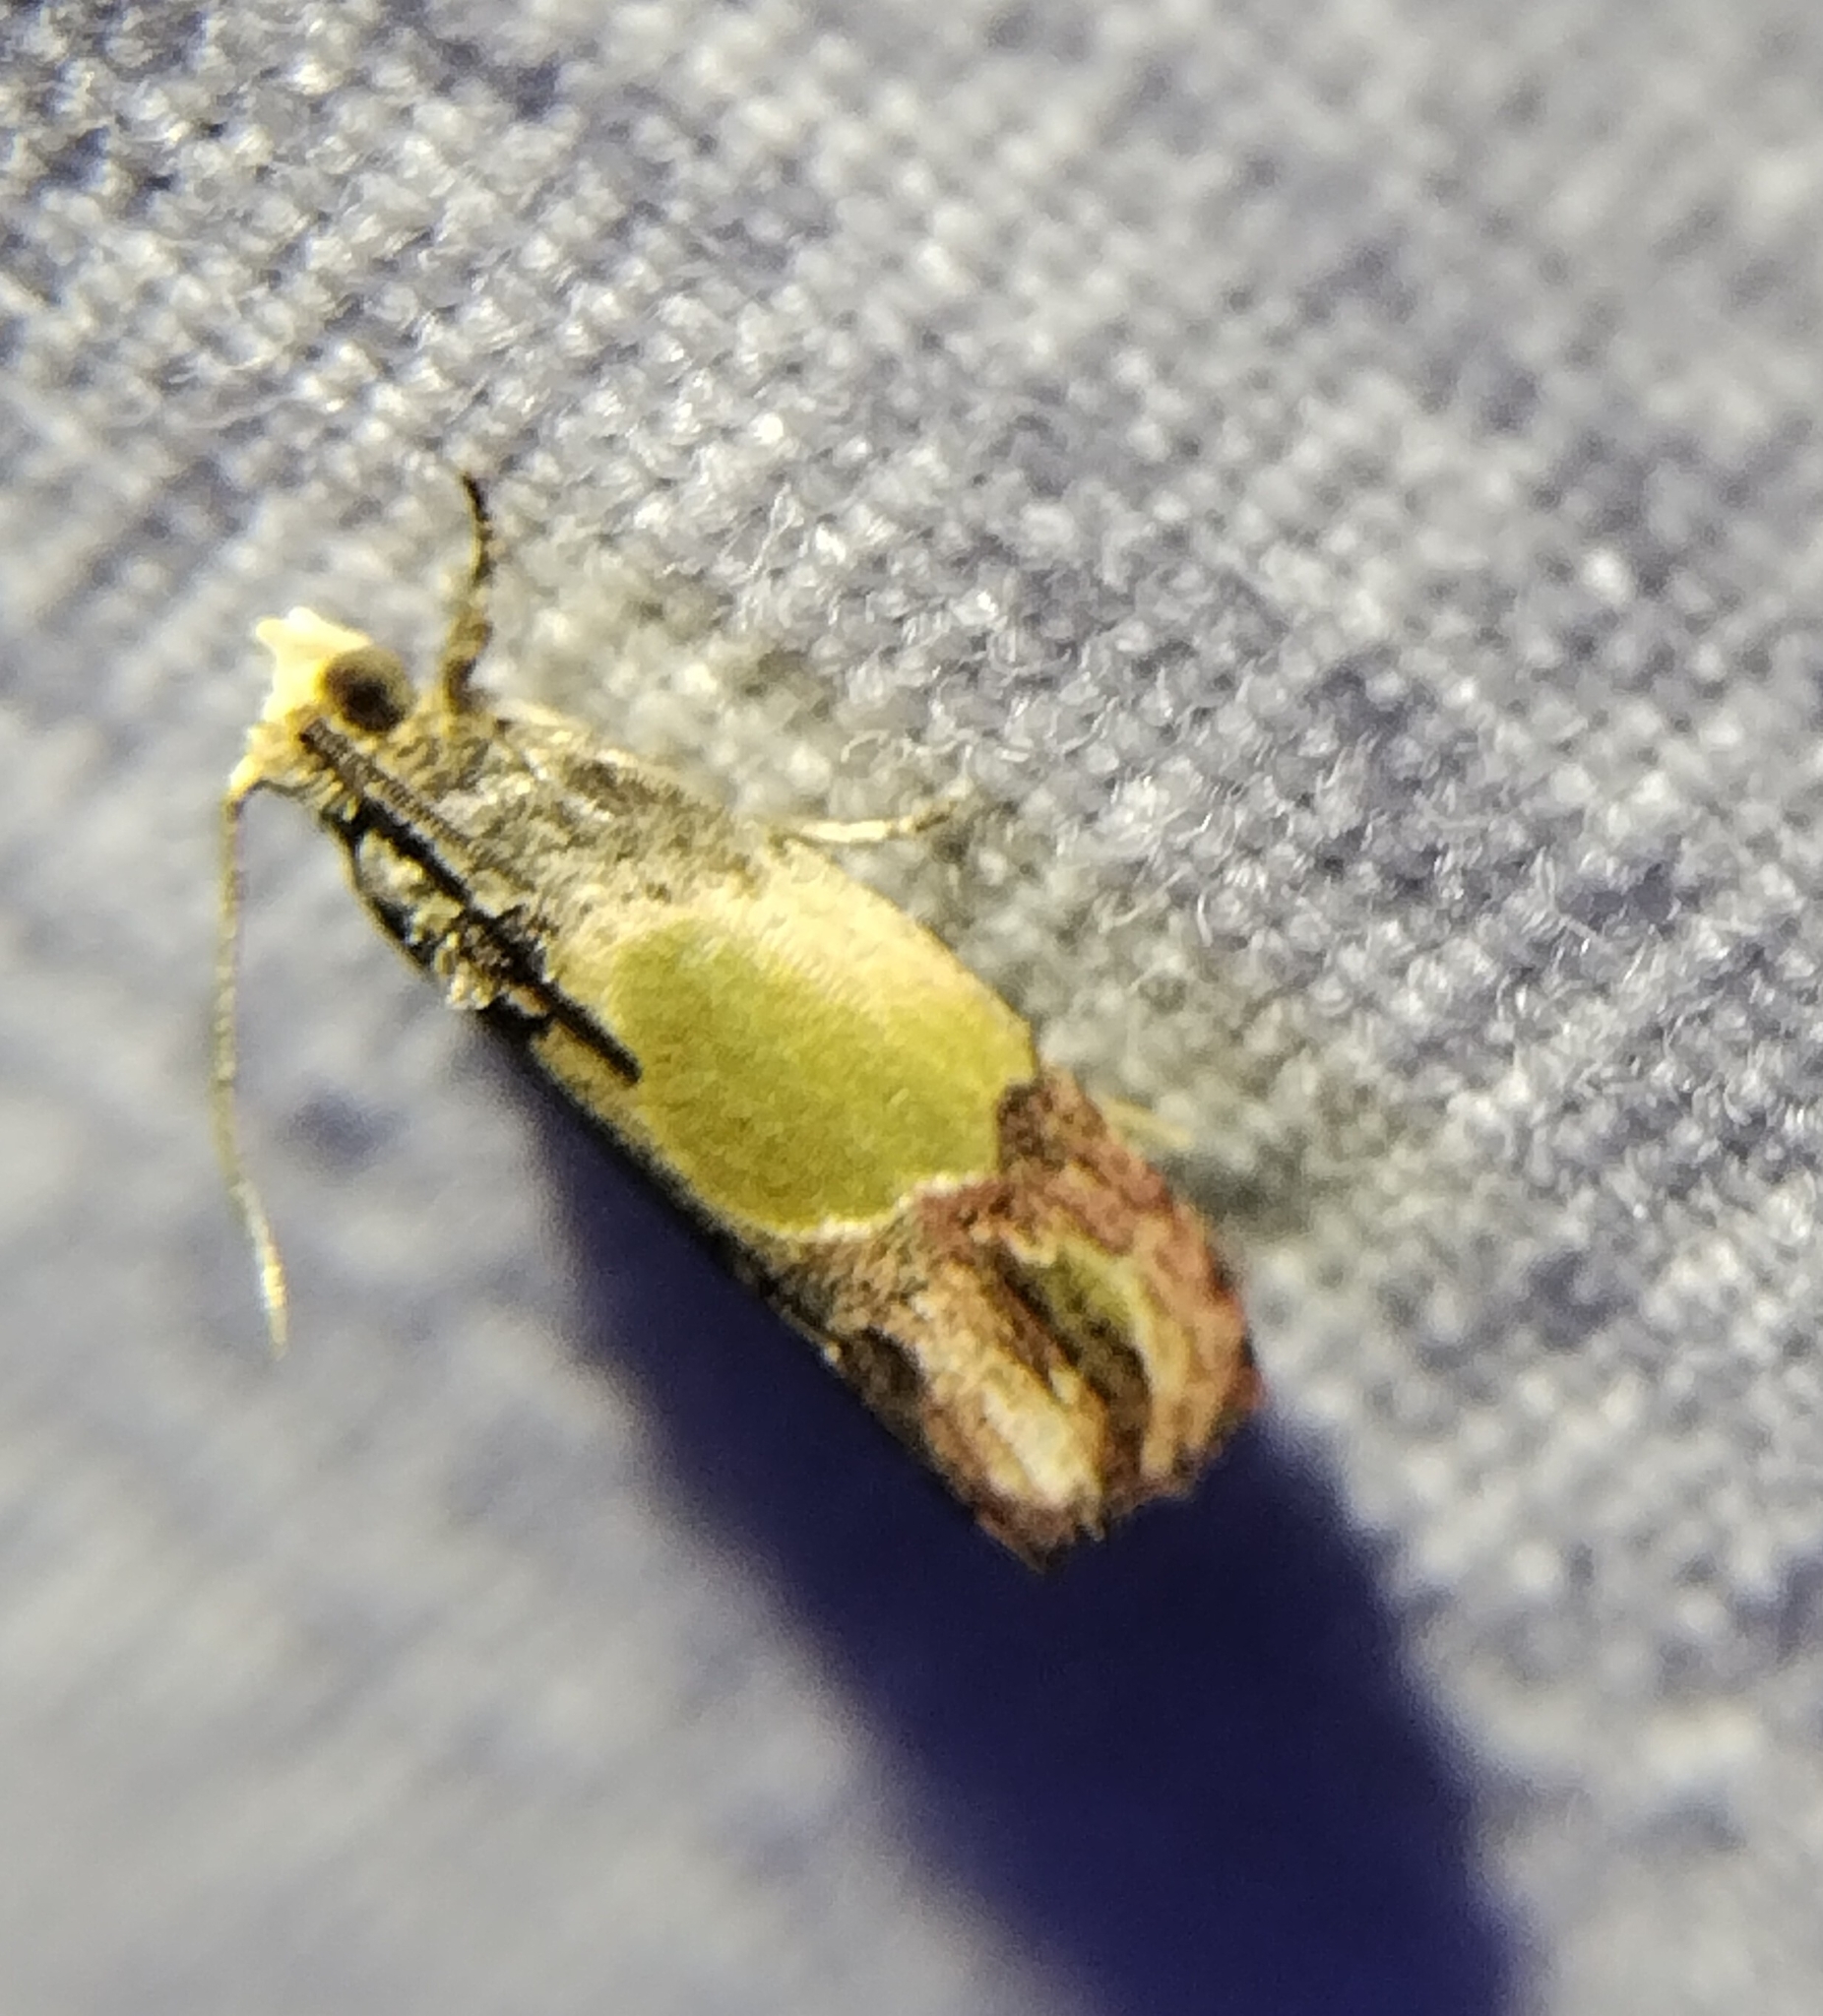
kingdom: Animalia
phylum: Arthropoda
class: Insecta
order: Lepidoptera
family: Tortricidae
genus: Eumarozia
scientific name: Eumarozia malachitana
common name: Sculptured moth
